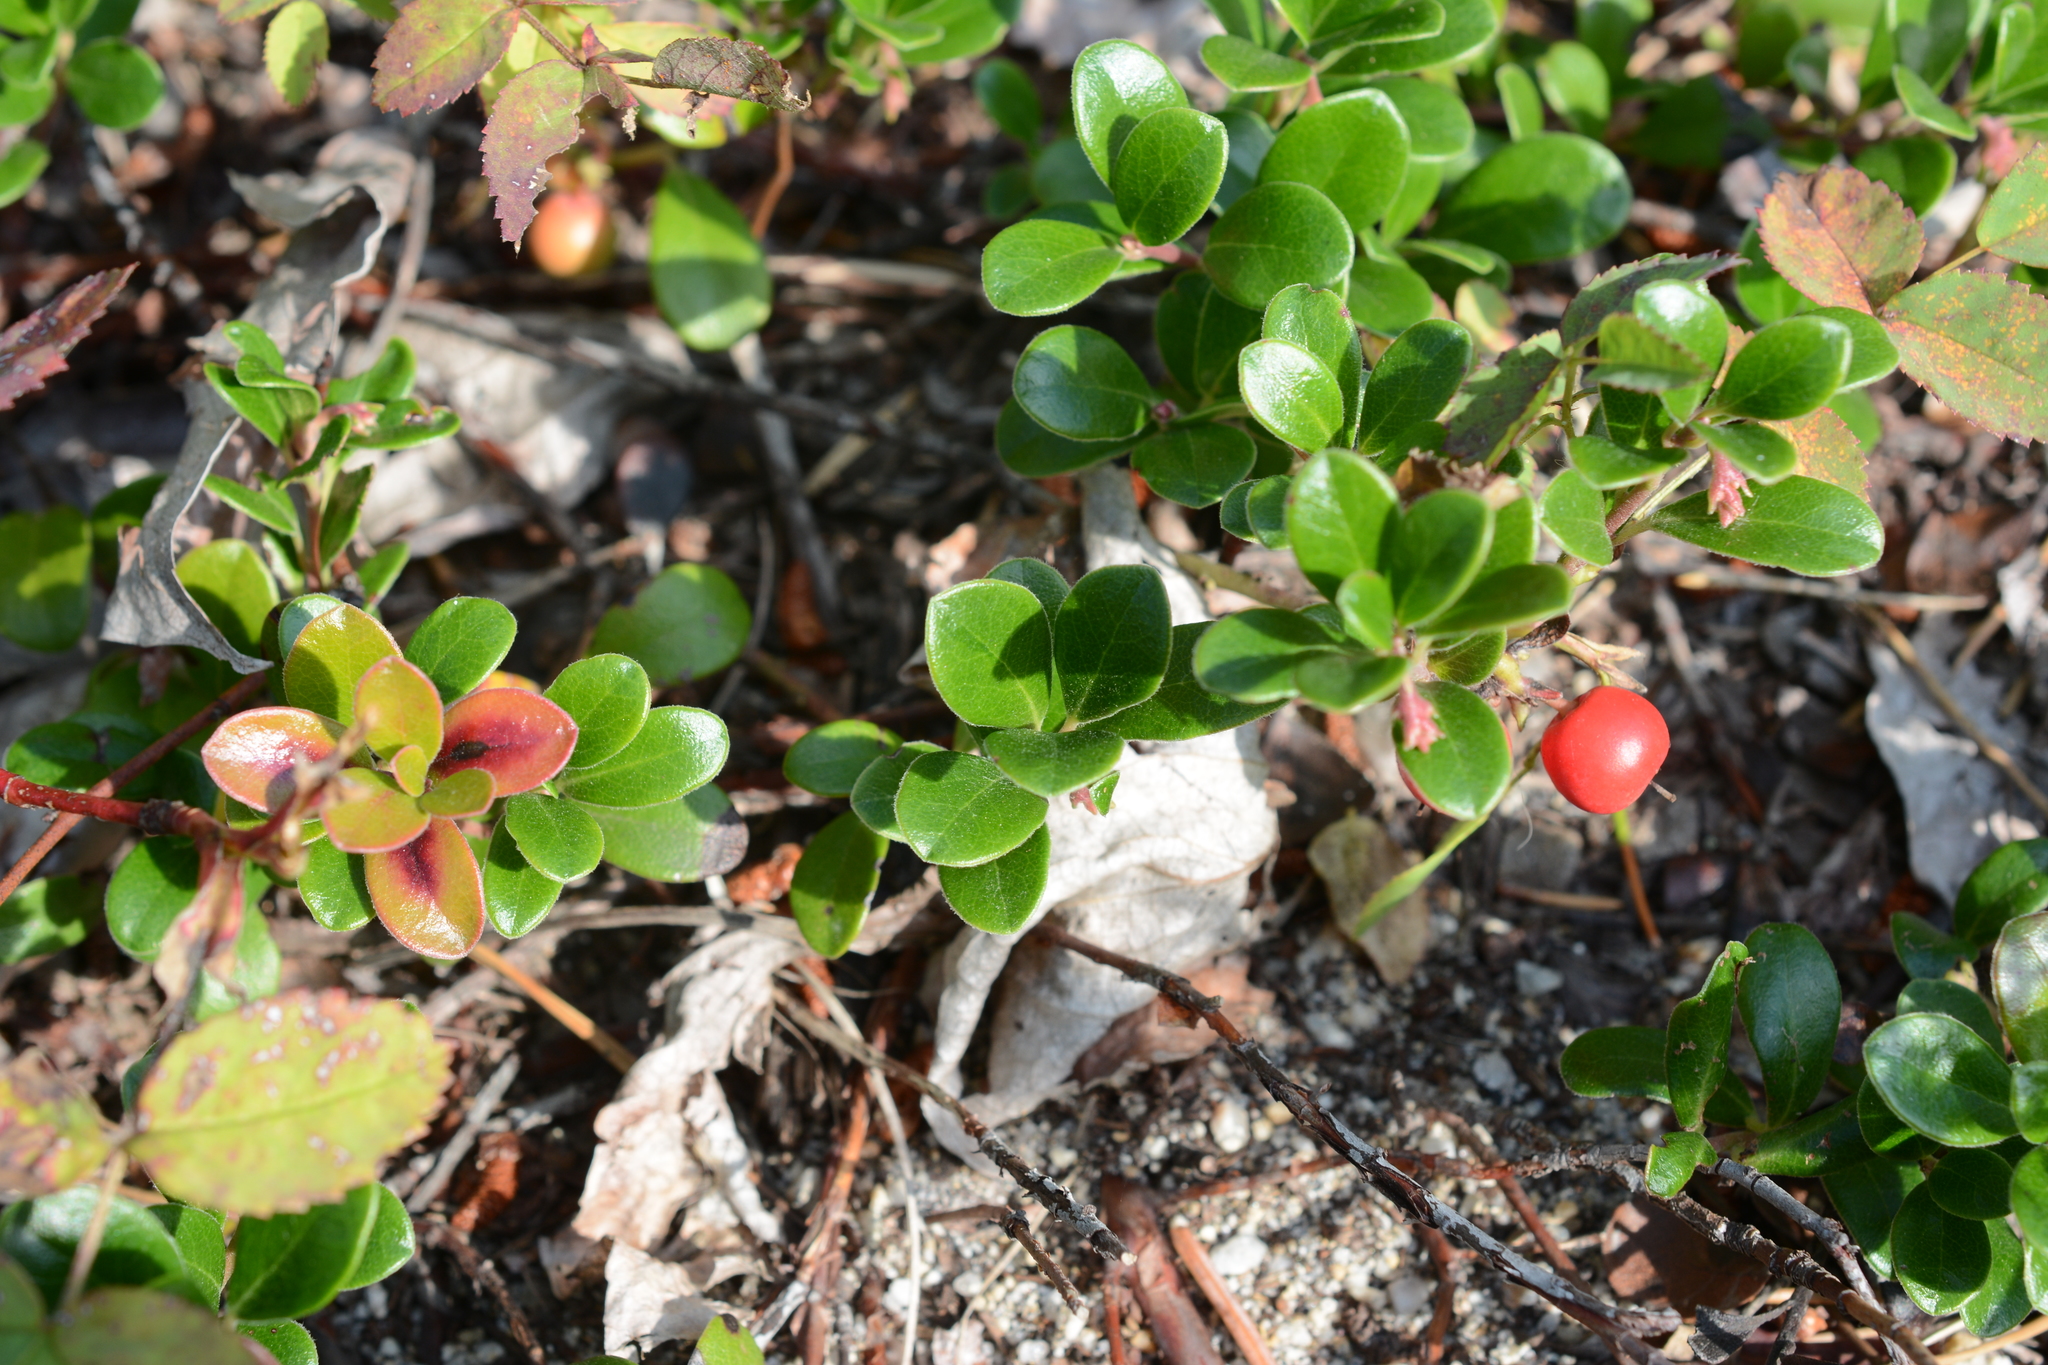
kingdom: Plantae
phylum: Tracheophyta
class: Magnoliopsida
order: Ericales
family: Ericaceae
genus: Arctostaphylos
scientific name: Arctostaphylos uva-ursi
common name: Bearberry
